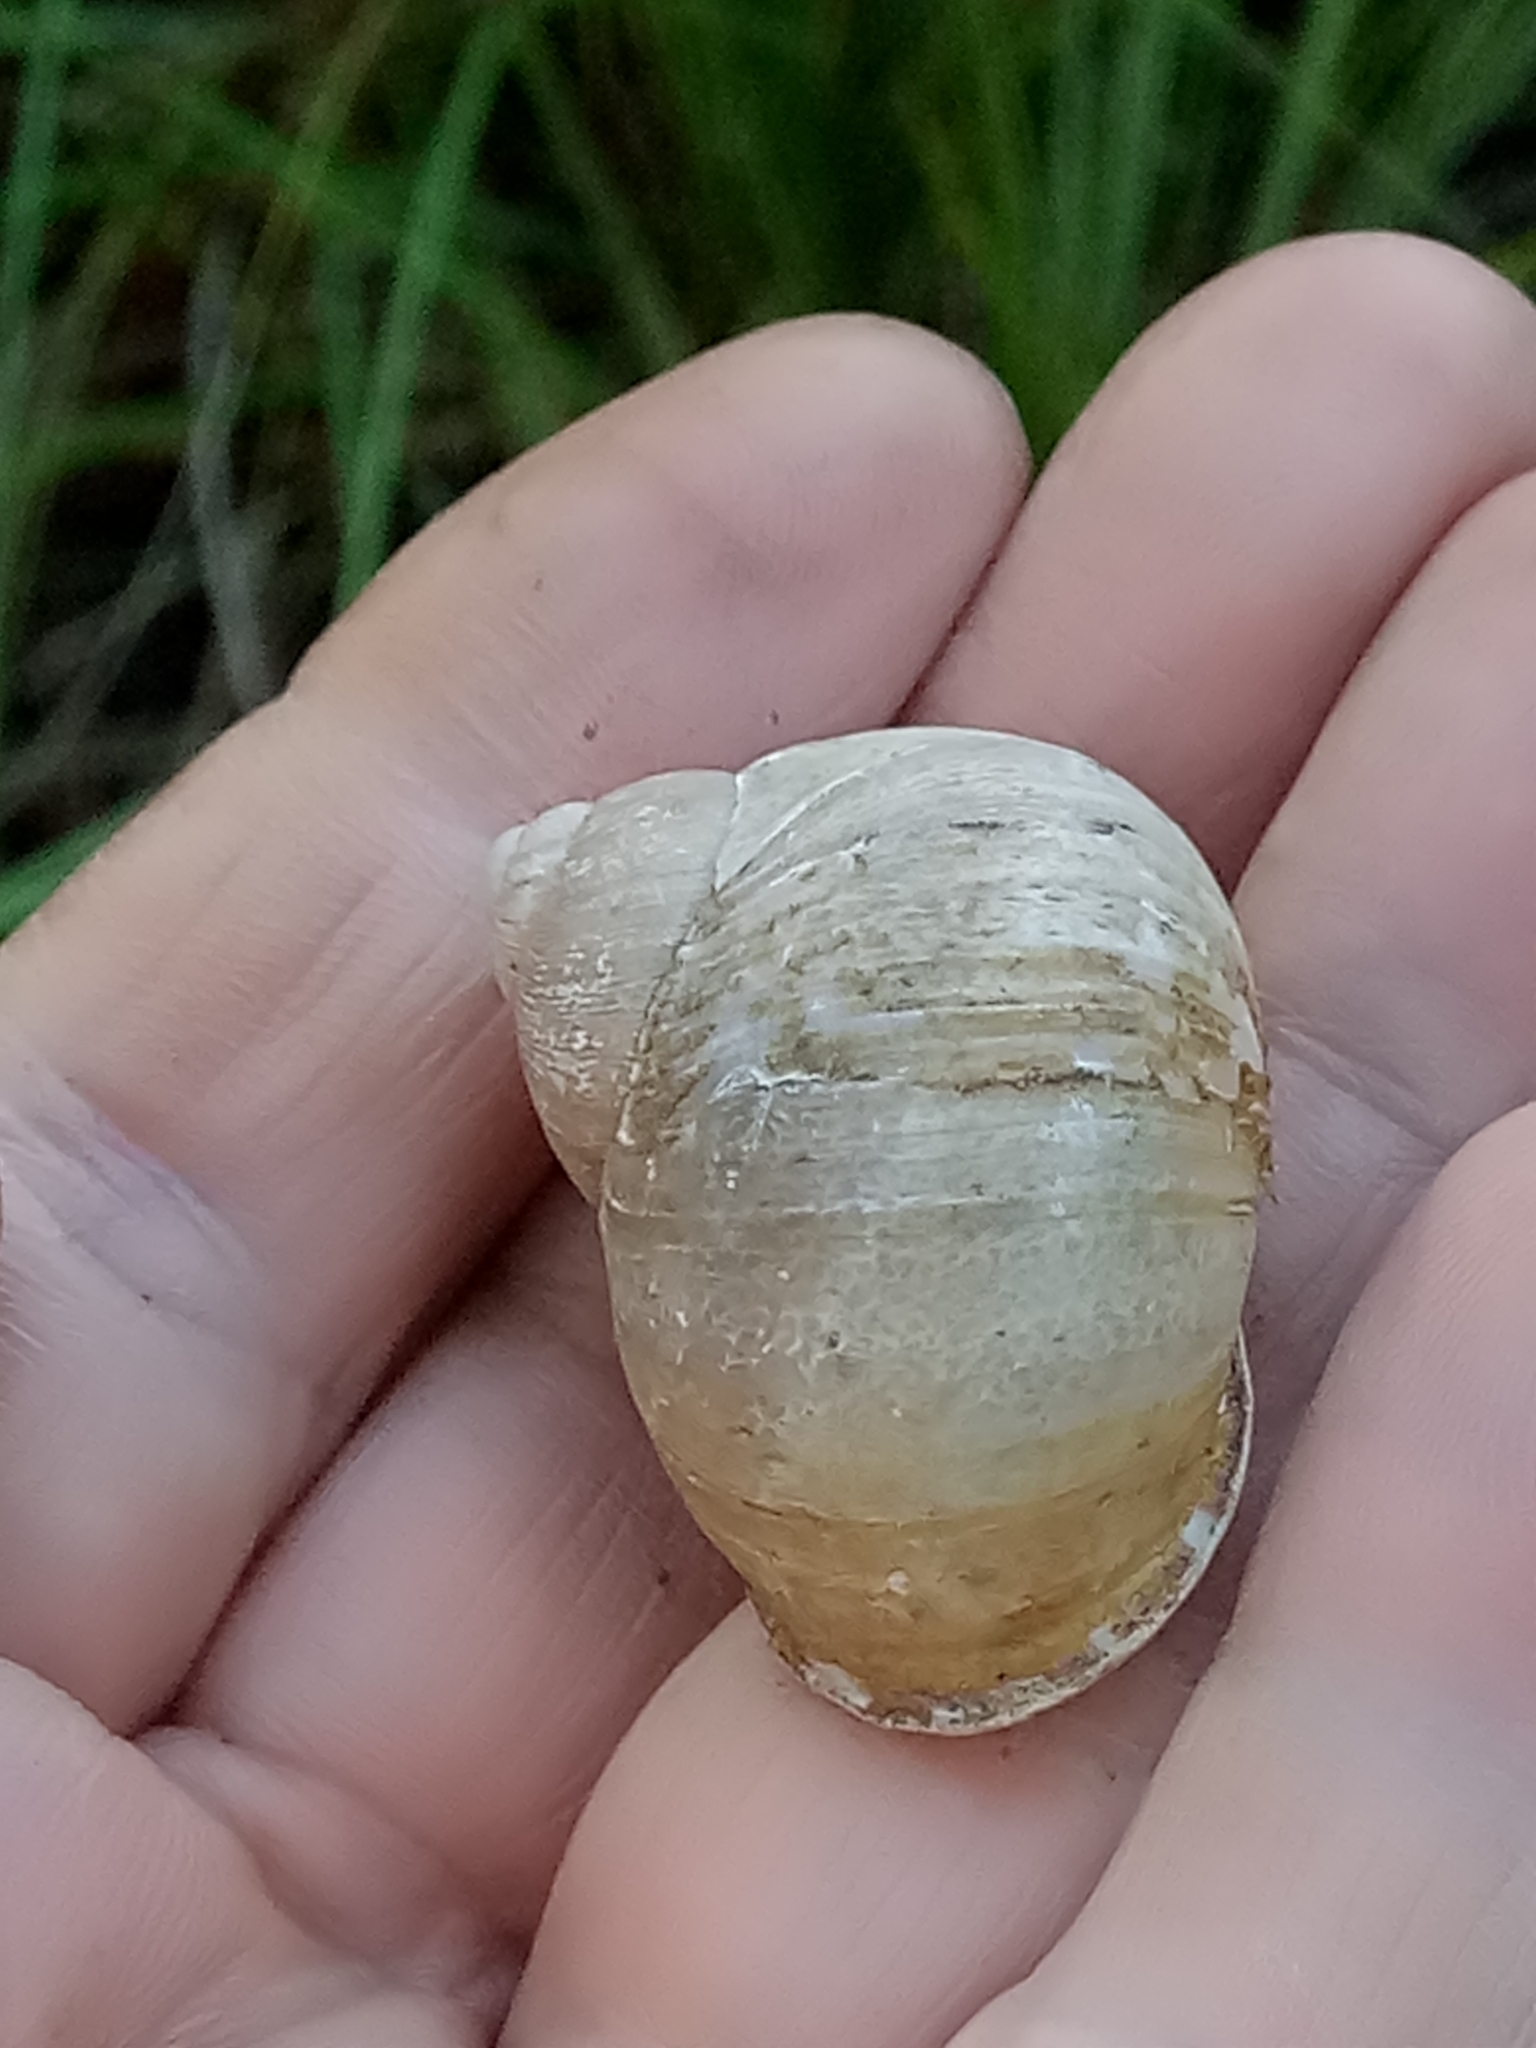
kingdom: Animalia
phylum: Mollusca
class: Gastropoda
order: Stylommatophora
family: Helicidae
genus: Cornu
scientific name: Cornu aspersum
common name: Brown garden snail
